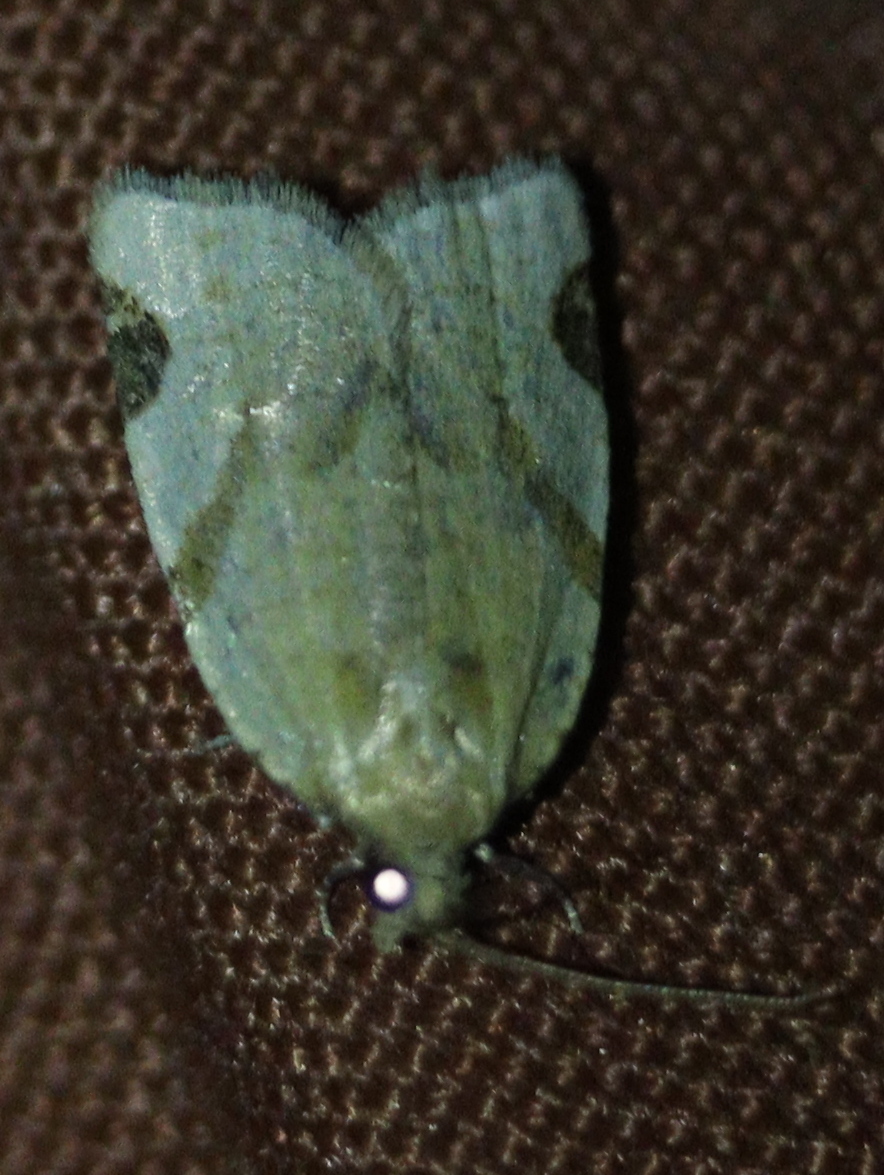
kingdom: Animalia
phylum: Arthropoda
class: Insecta
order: Lepidoptera
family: Tortricidae
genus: Paramesia
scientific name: Paramesia gnomana
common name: Small straw twist
